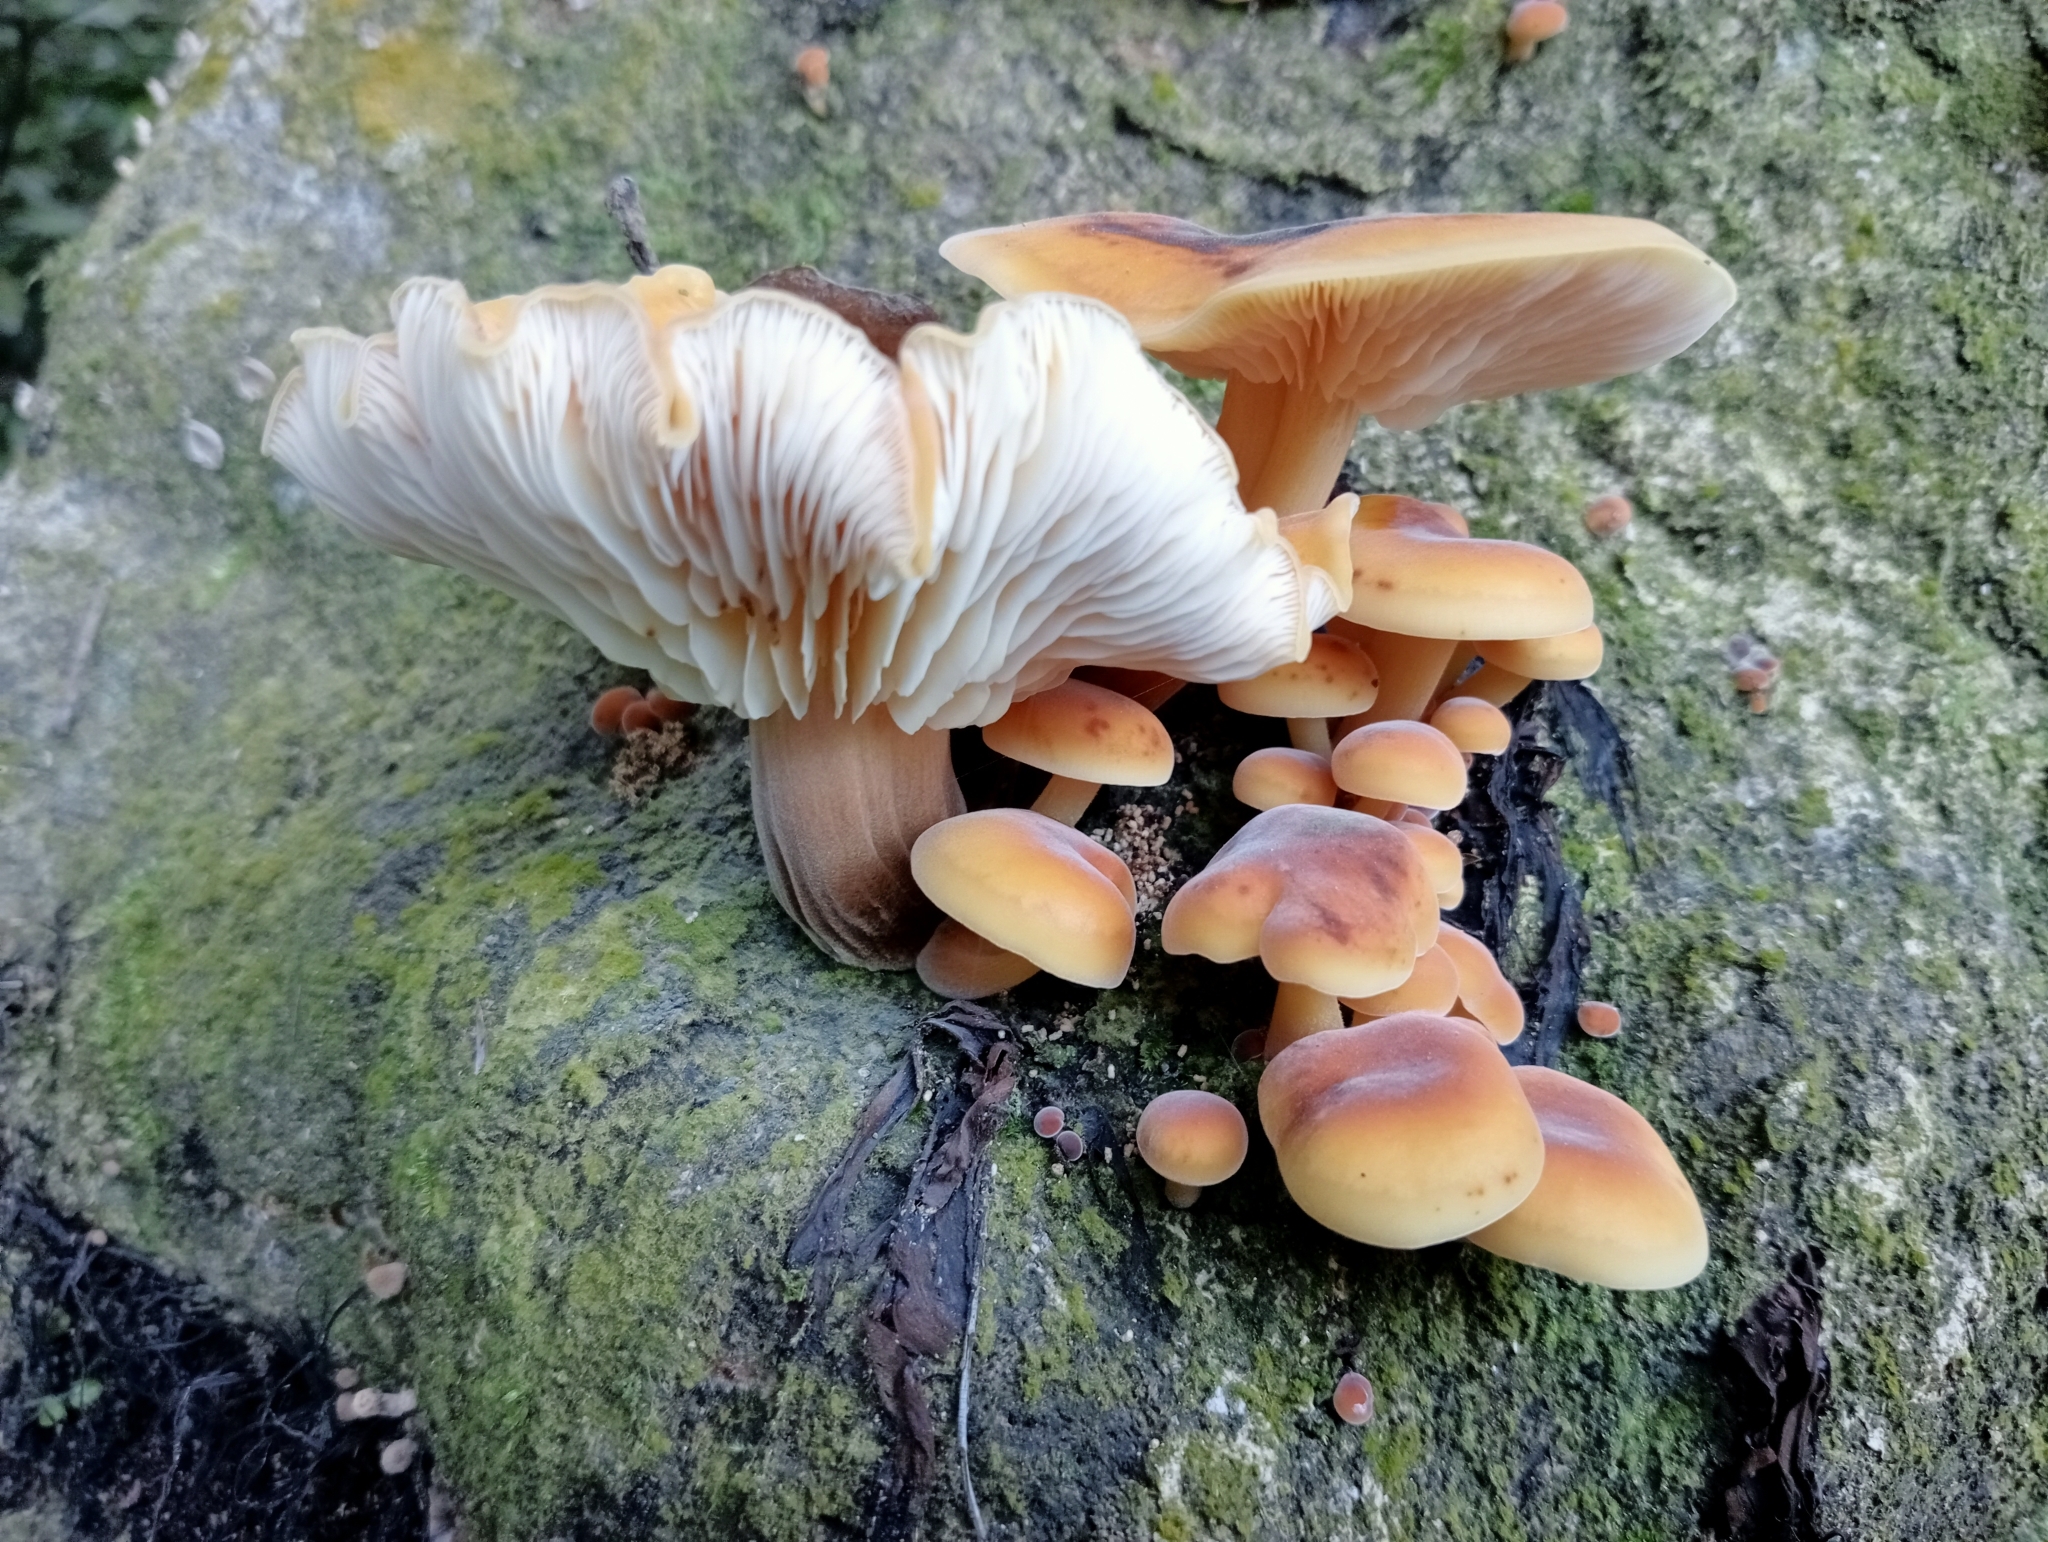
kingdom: Fungi
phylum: Basidiomycota
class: Agaricomycetes
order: Agaricales
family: Physalacriaceae
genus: Flammulina
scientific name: Flammulina velutipes
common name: Velvet shank
